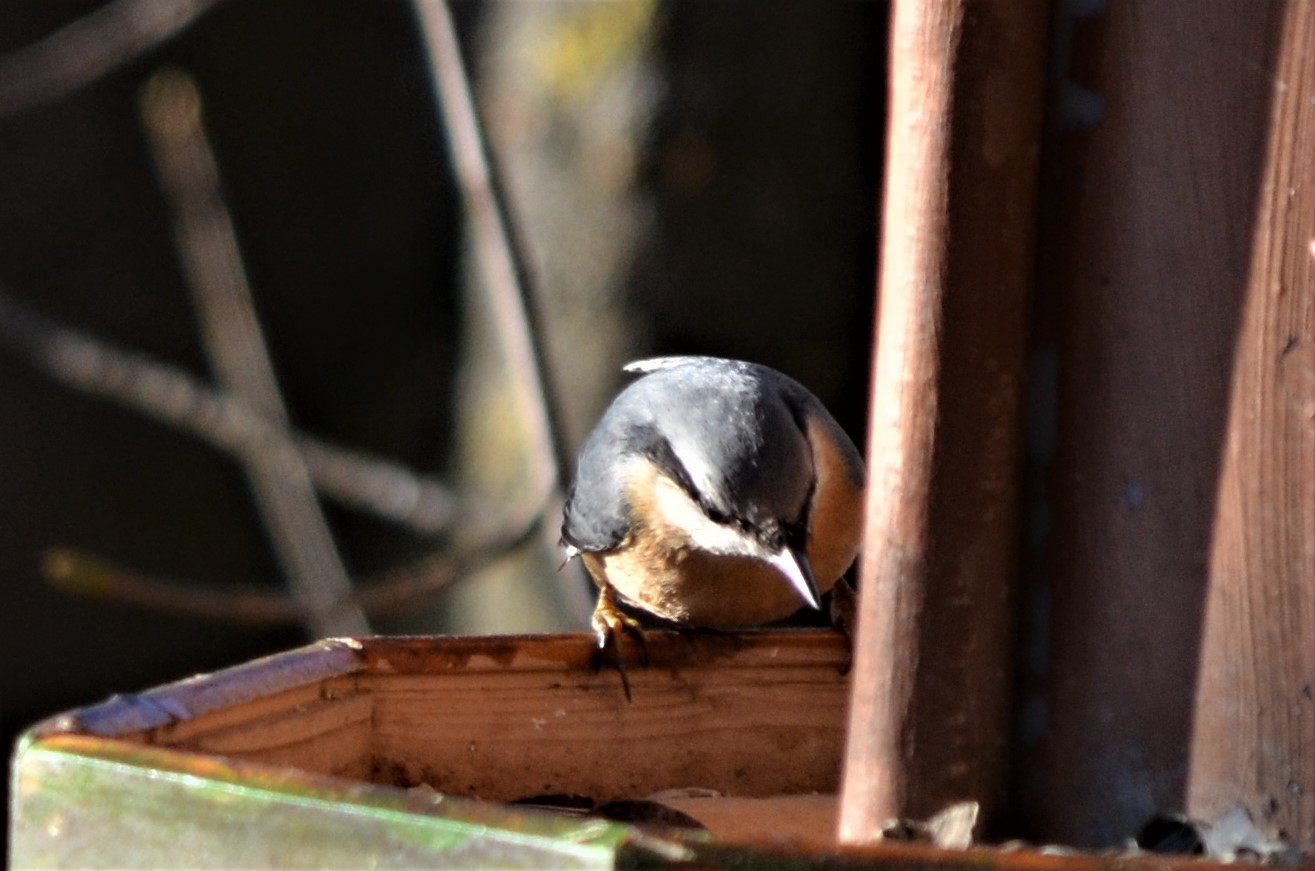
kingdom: Animalia
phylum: Chordata
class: Aves
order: Passeriformes
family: Sittidae
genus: Sitta
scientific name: Sitta europaea
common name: Eurasian nuthatch
